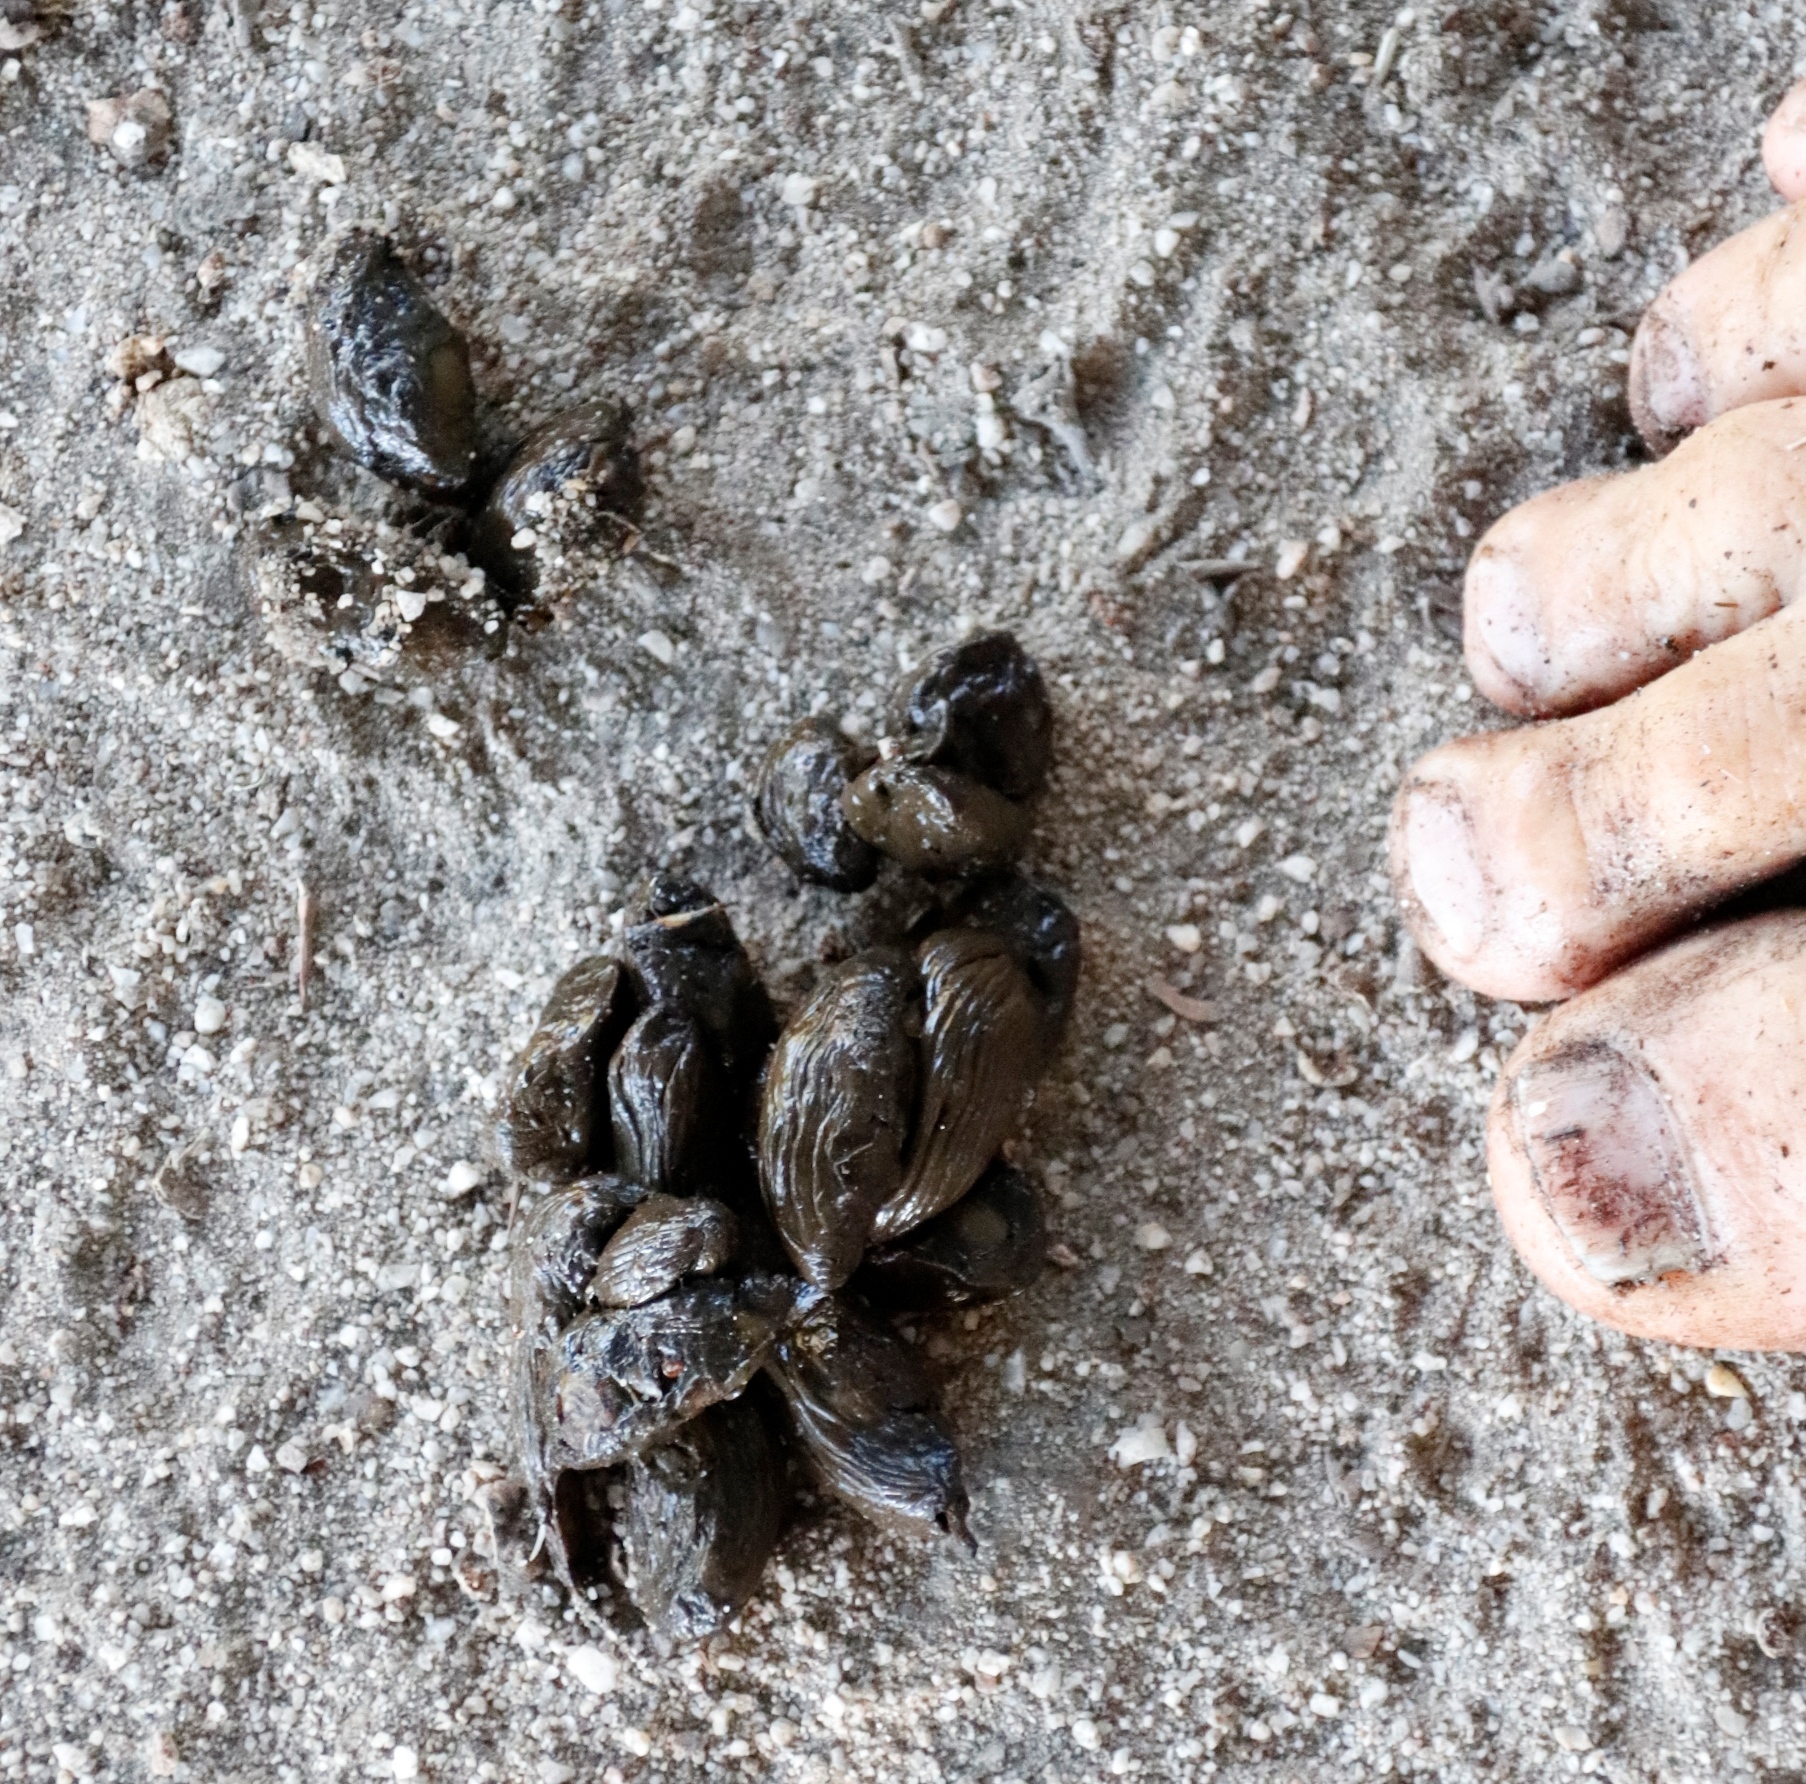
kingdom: Animalia
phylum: Chordata
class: Mammalia
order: Rodentia
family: Hystricidae
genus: Hystrix
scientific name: Hystrix africaeaustralis
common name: Cape porcupine
